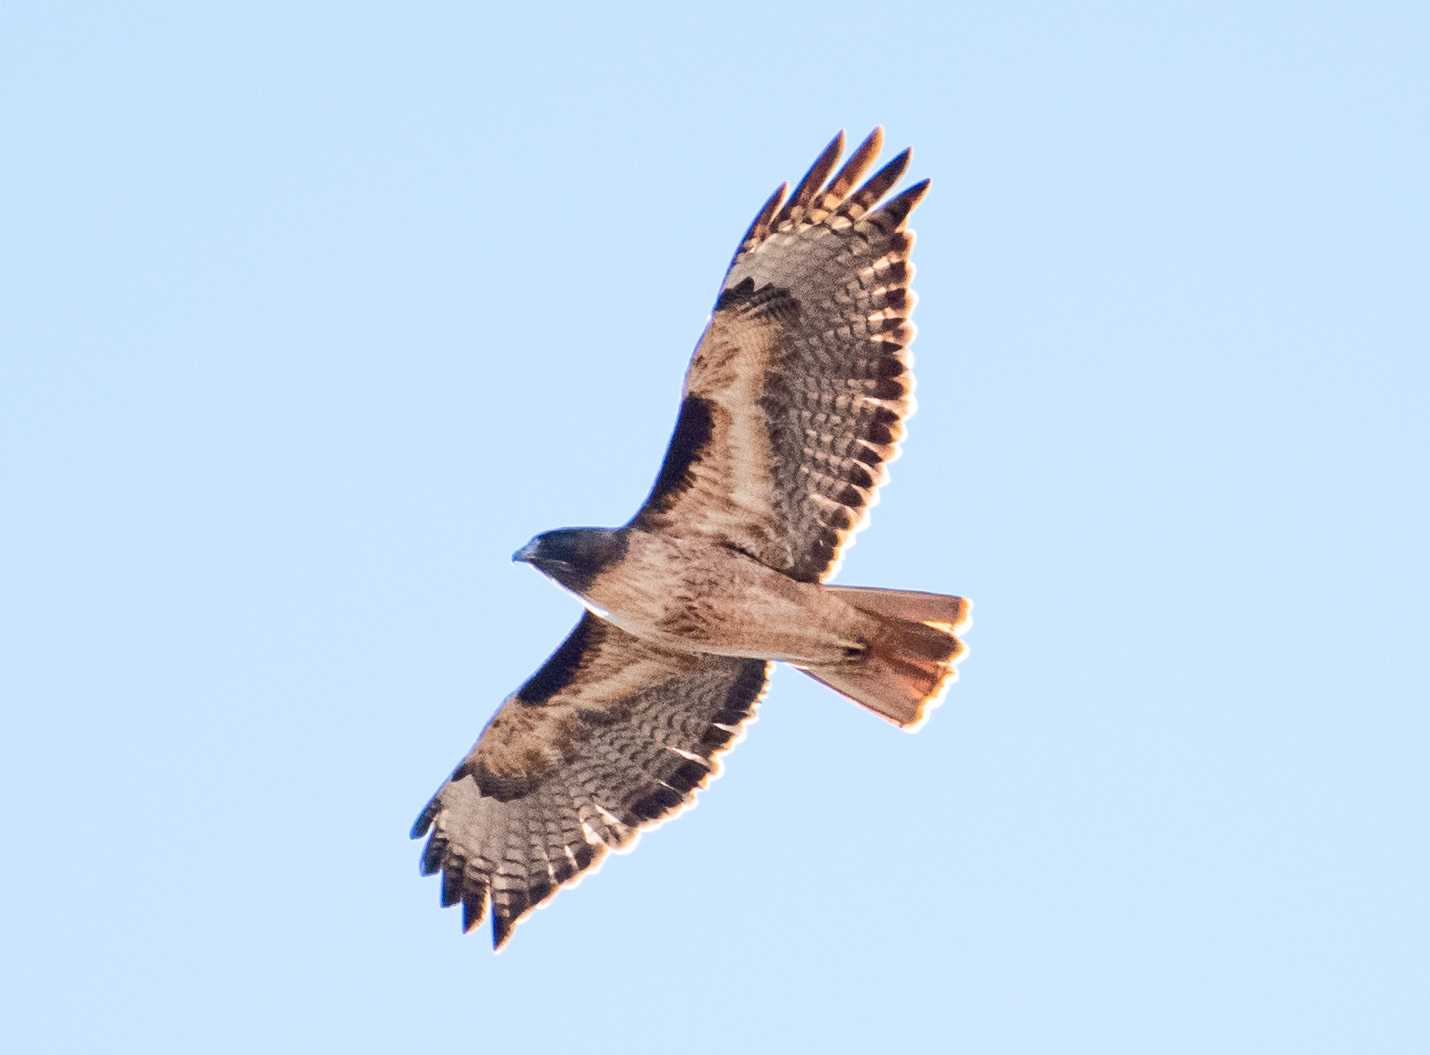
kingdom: Animalia
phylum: Chordata
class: Aves
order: Accipitriformes
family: Accipitridae
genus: Buteo
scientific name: Buteo jamaicensis
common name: Red-tailed hawk
